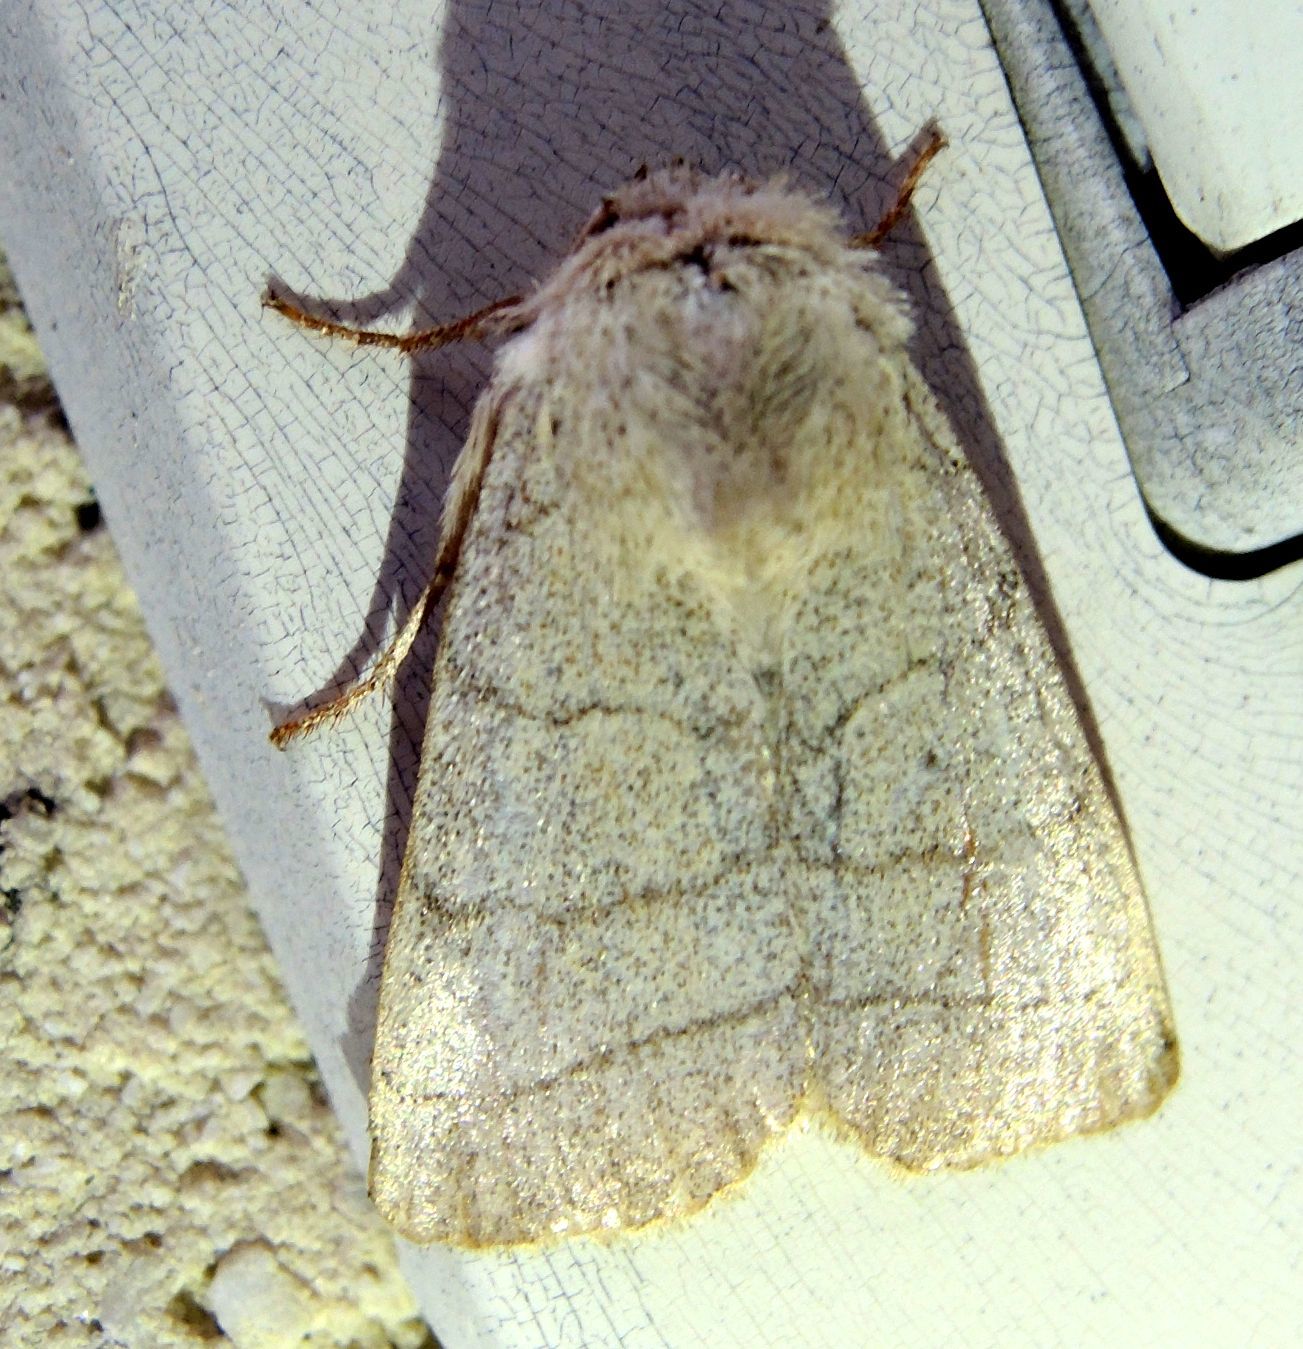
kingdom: Animalia
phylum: Arthropoda
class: Insecta
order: Lepidoptera
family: Noctuidae
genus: Charanyca
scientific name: Charanyca trigrammica
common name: Treble lines
